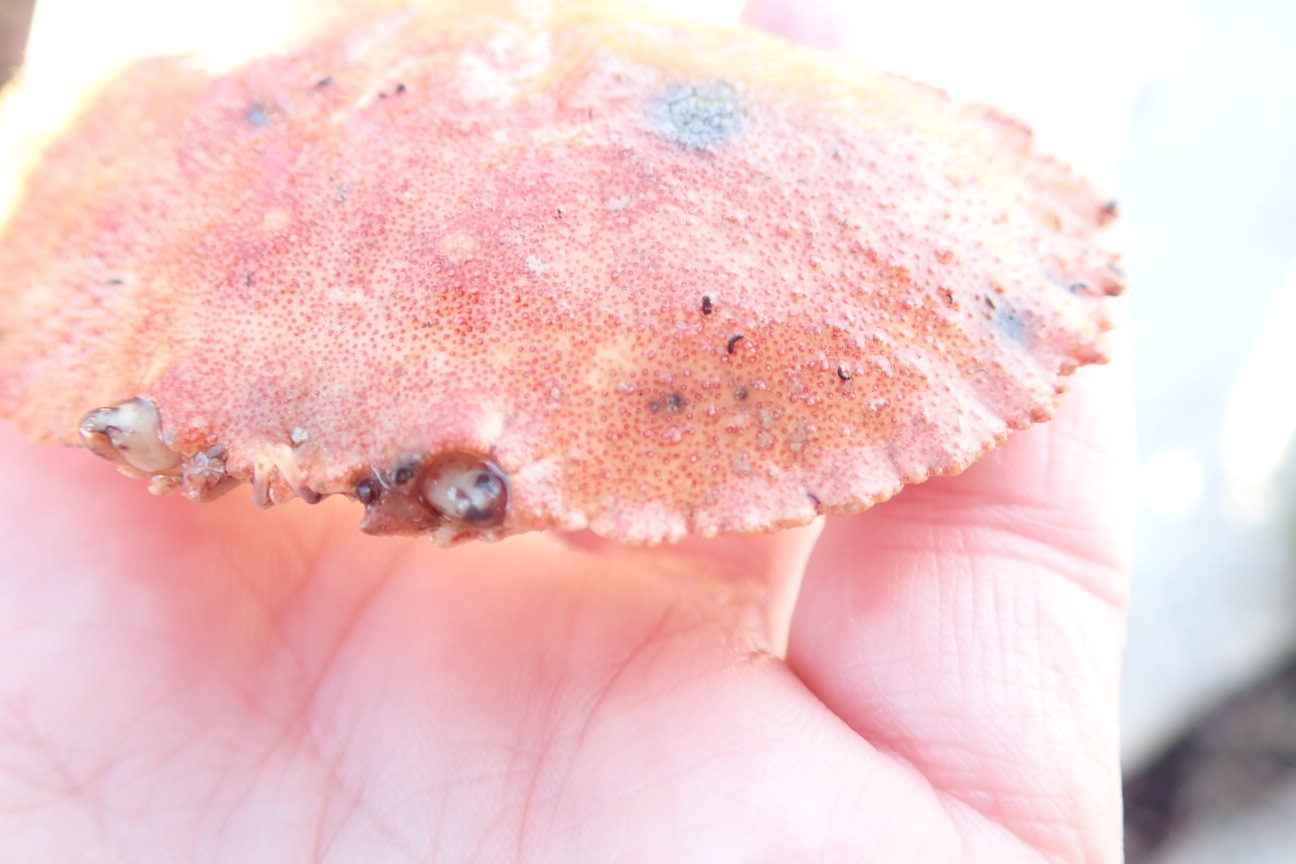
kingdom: Animalia
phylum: Arthropoda
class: Malacostraca
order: Decapoda
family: Cancridae
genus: Cancer
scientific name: Cancer borealis
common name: Jonah crab
